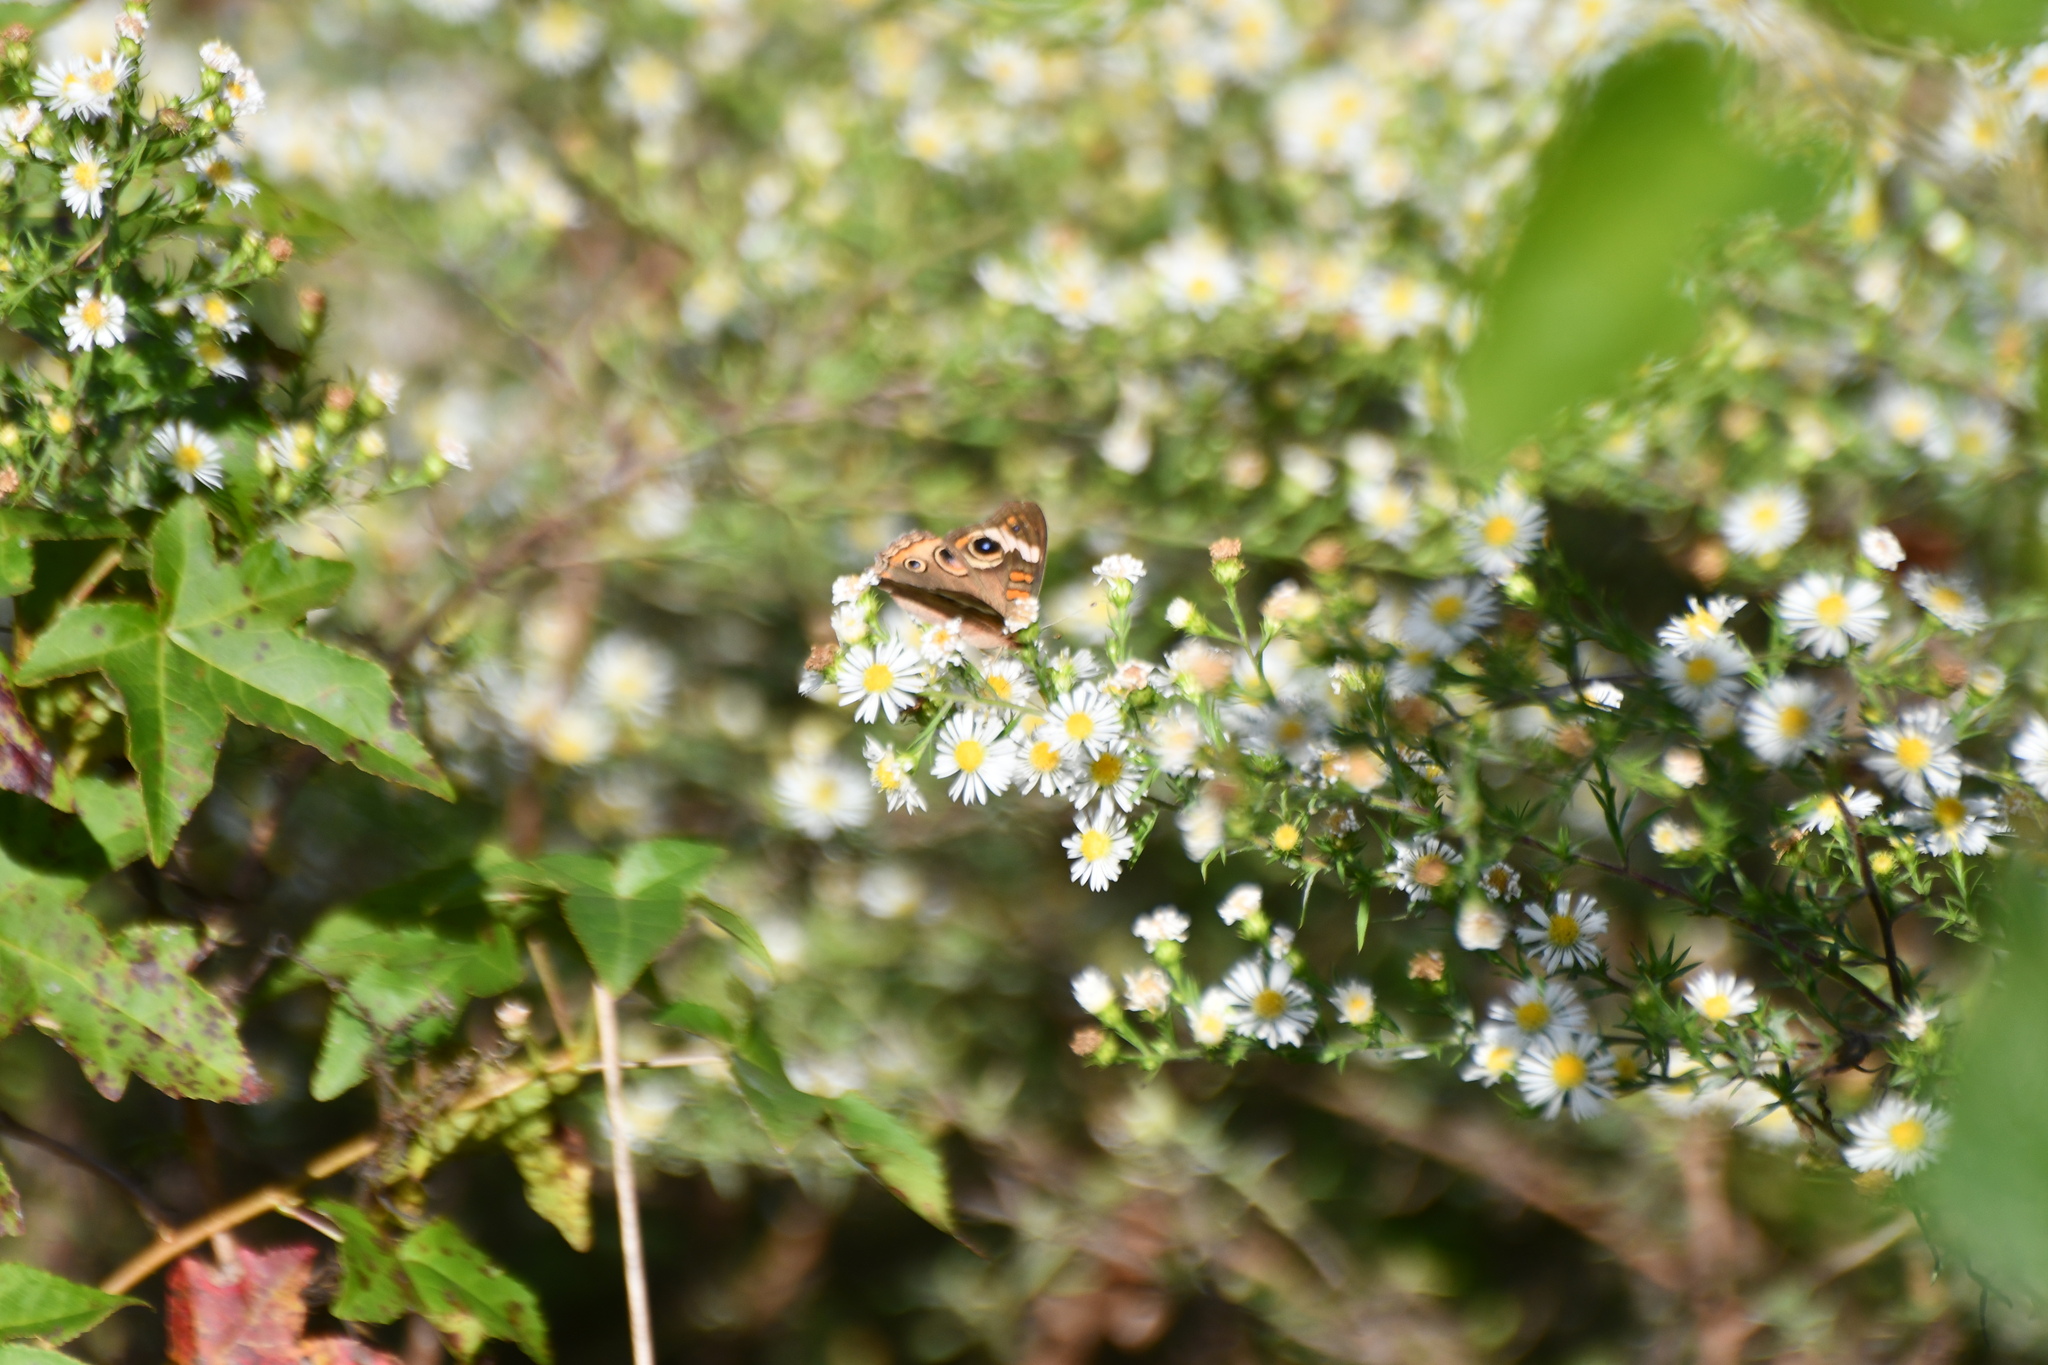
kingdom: Animalia
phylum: Arthropoda
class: Insecta
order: Lepidoptera
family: Nymphalidae
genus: Junonia
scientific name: Junonia coenia
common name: Common buckeye
